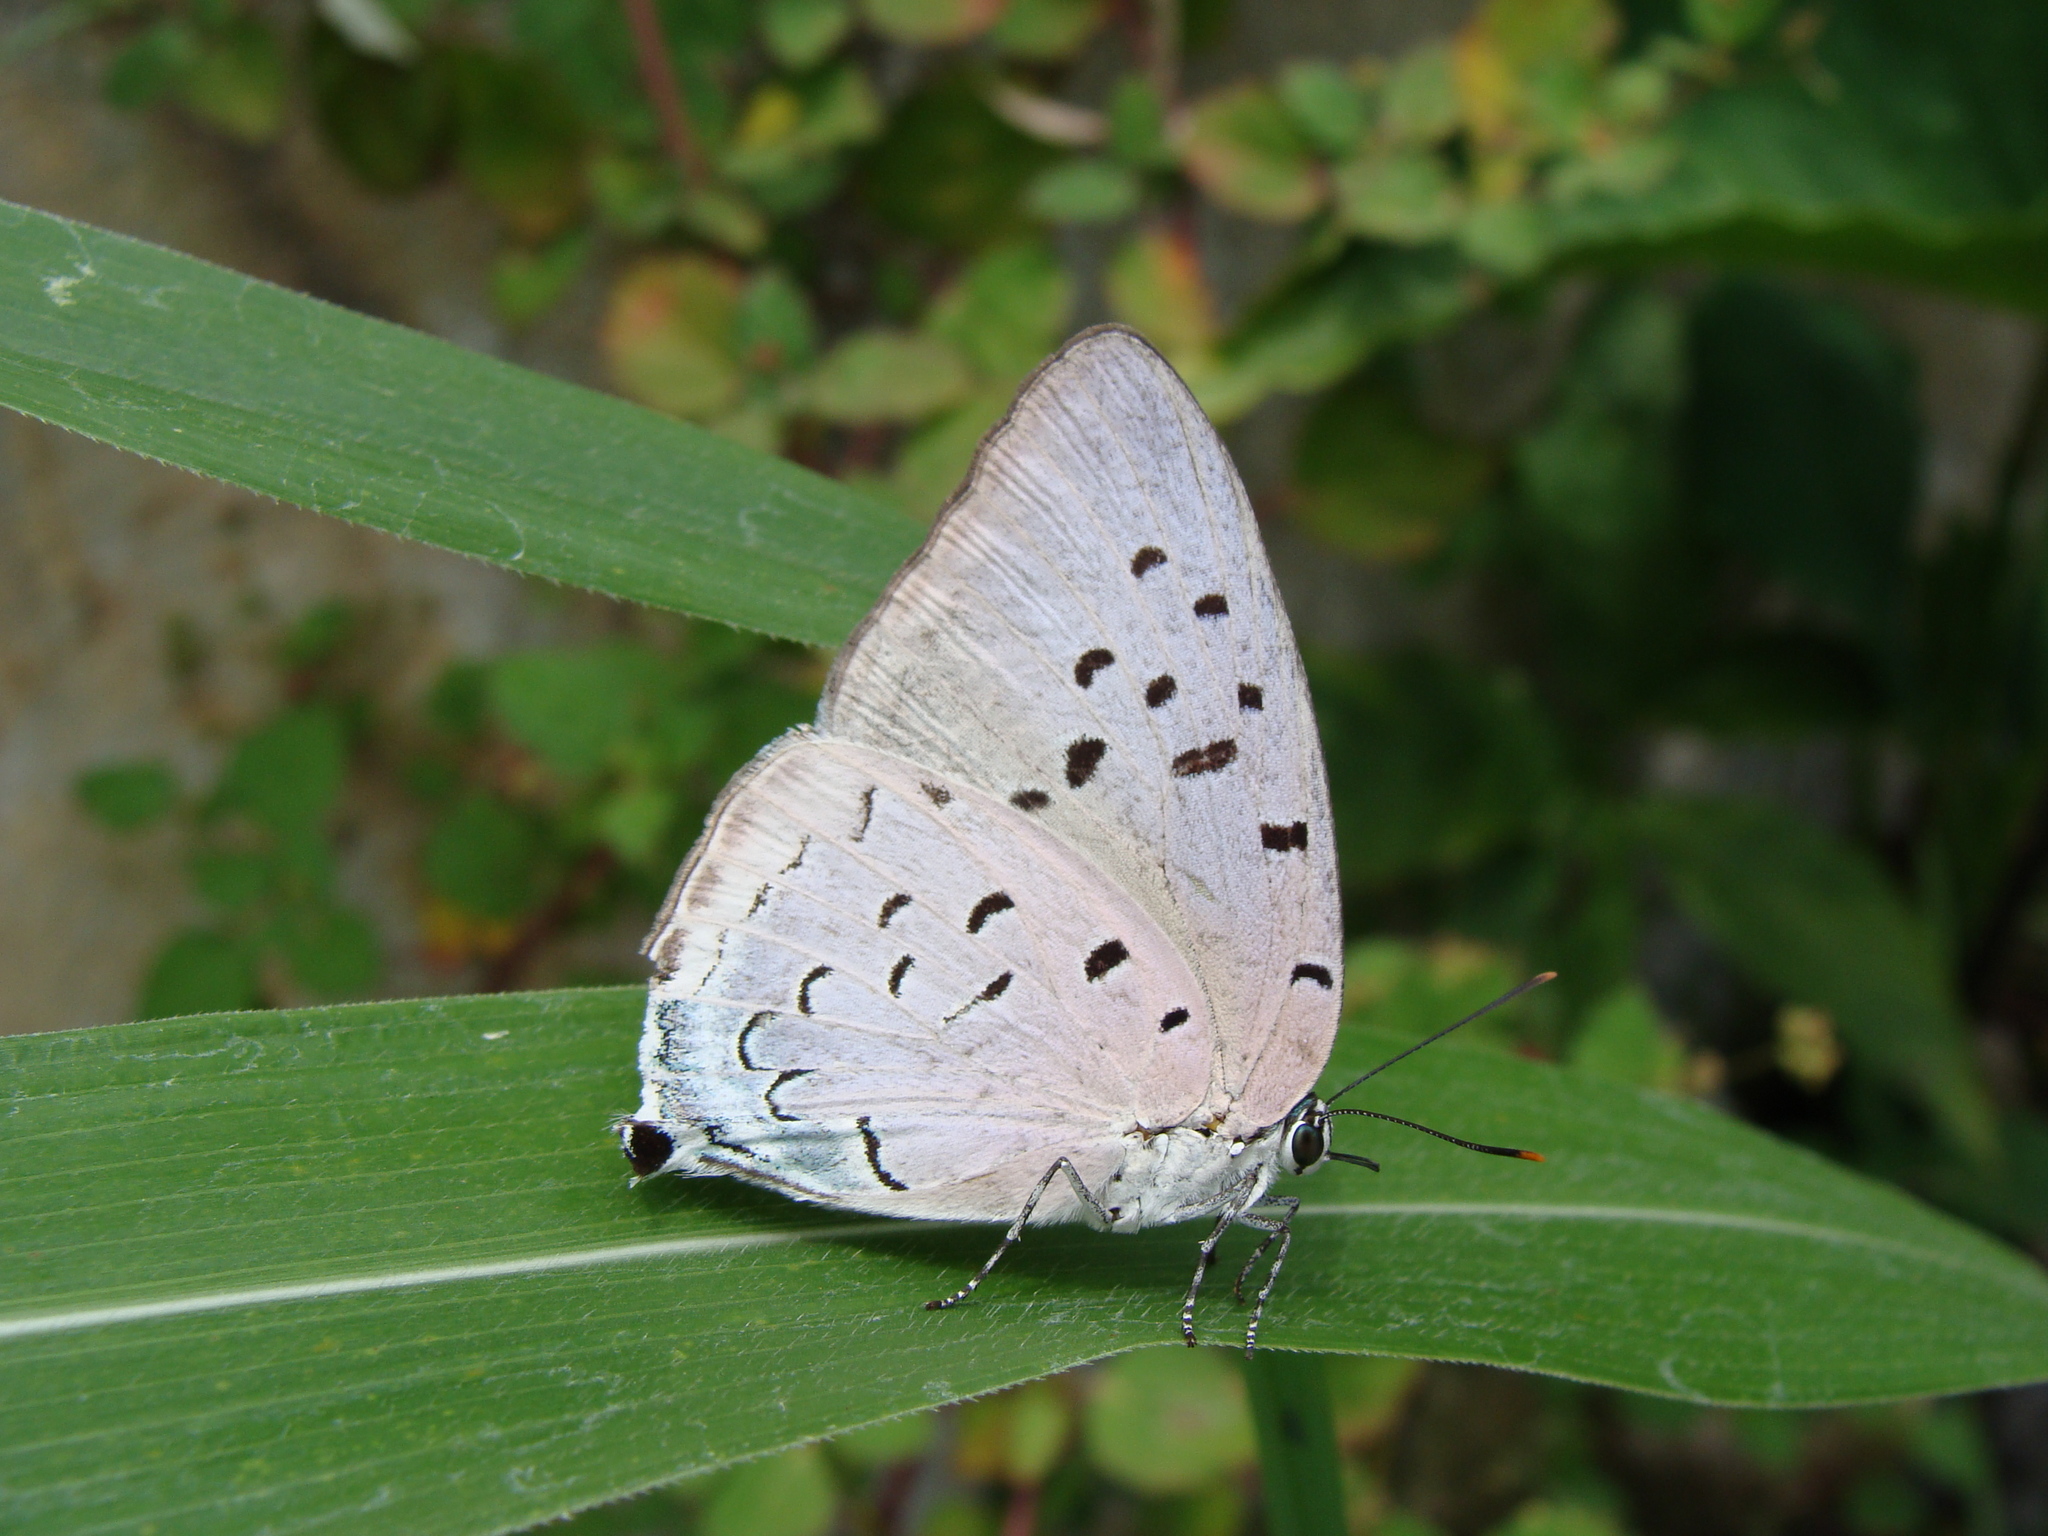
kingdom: Animalia
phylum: Arthropoda
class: Insecta
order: Lepidoptera
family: Lycaenidae
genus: Pseudolycaena
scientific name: Pseudolycaena damo
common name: Sky-blue hairstreak
